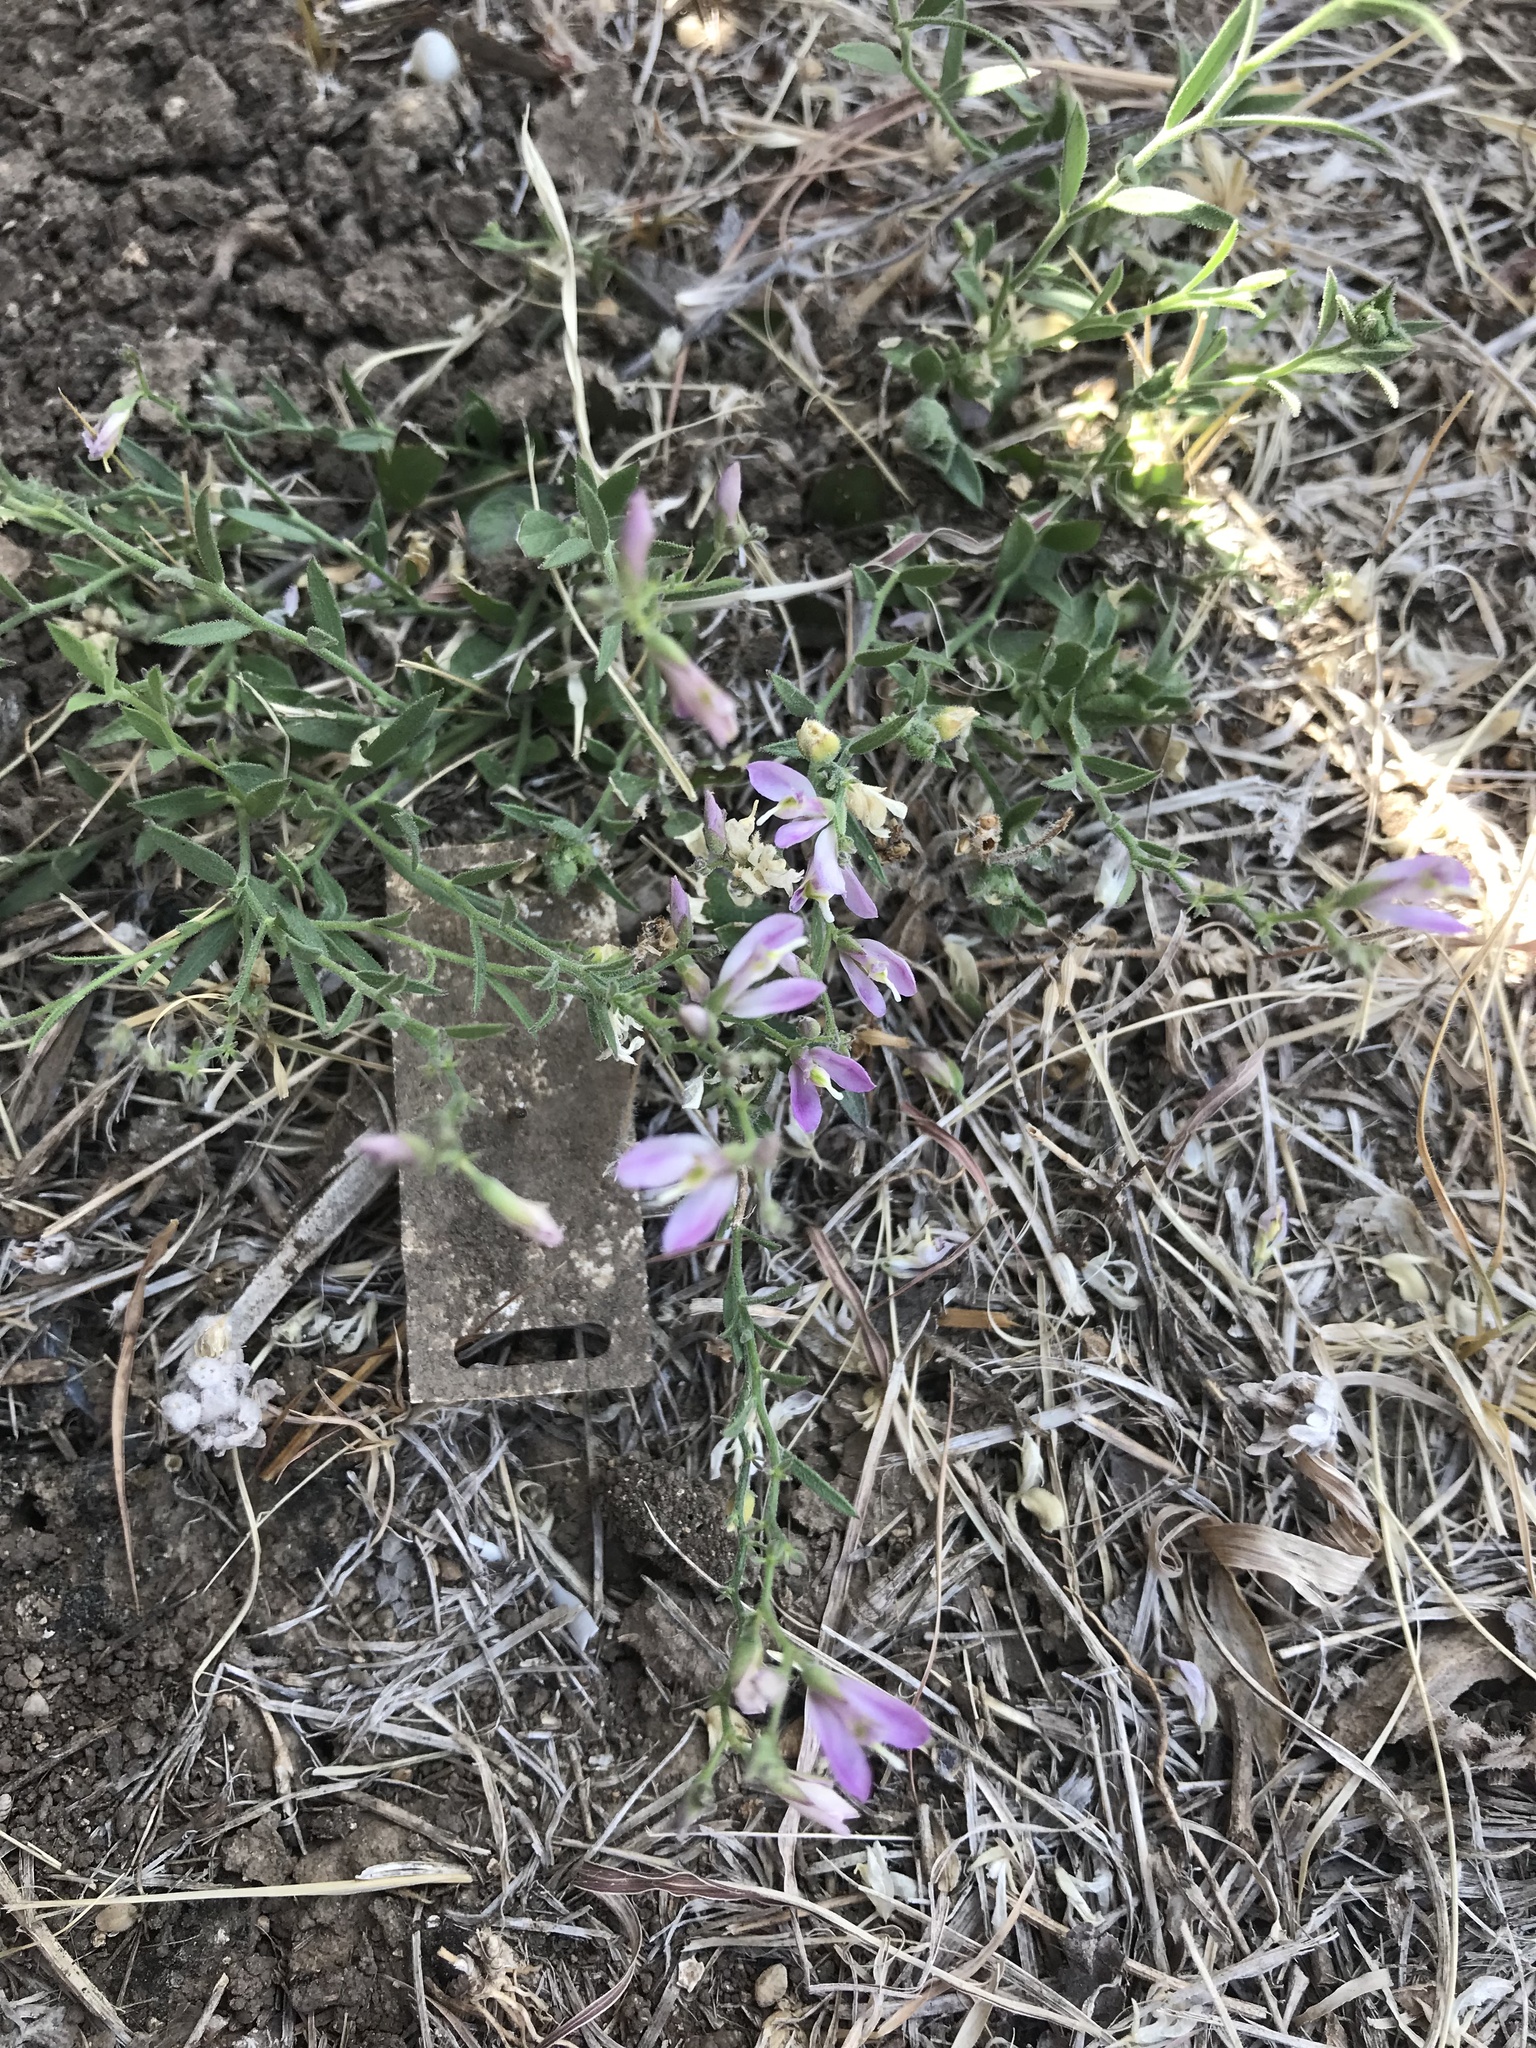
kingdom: Plantae
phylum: Tracheophyta
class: Magnoliopsida
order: Fabales
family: Polygalaceae
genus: Rhinotropis
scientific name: Rhinotropis lindheimeri
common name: Shrubby milkwort
